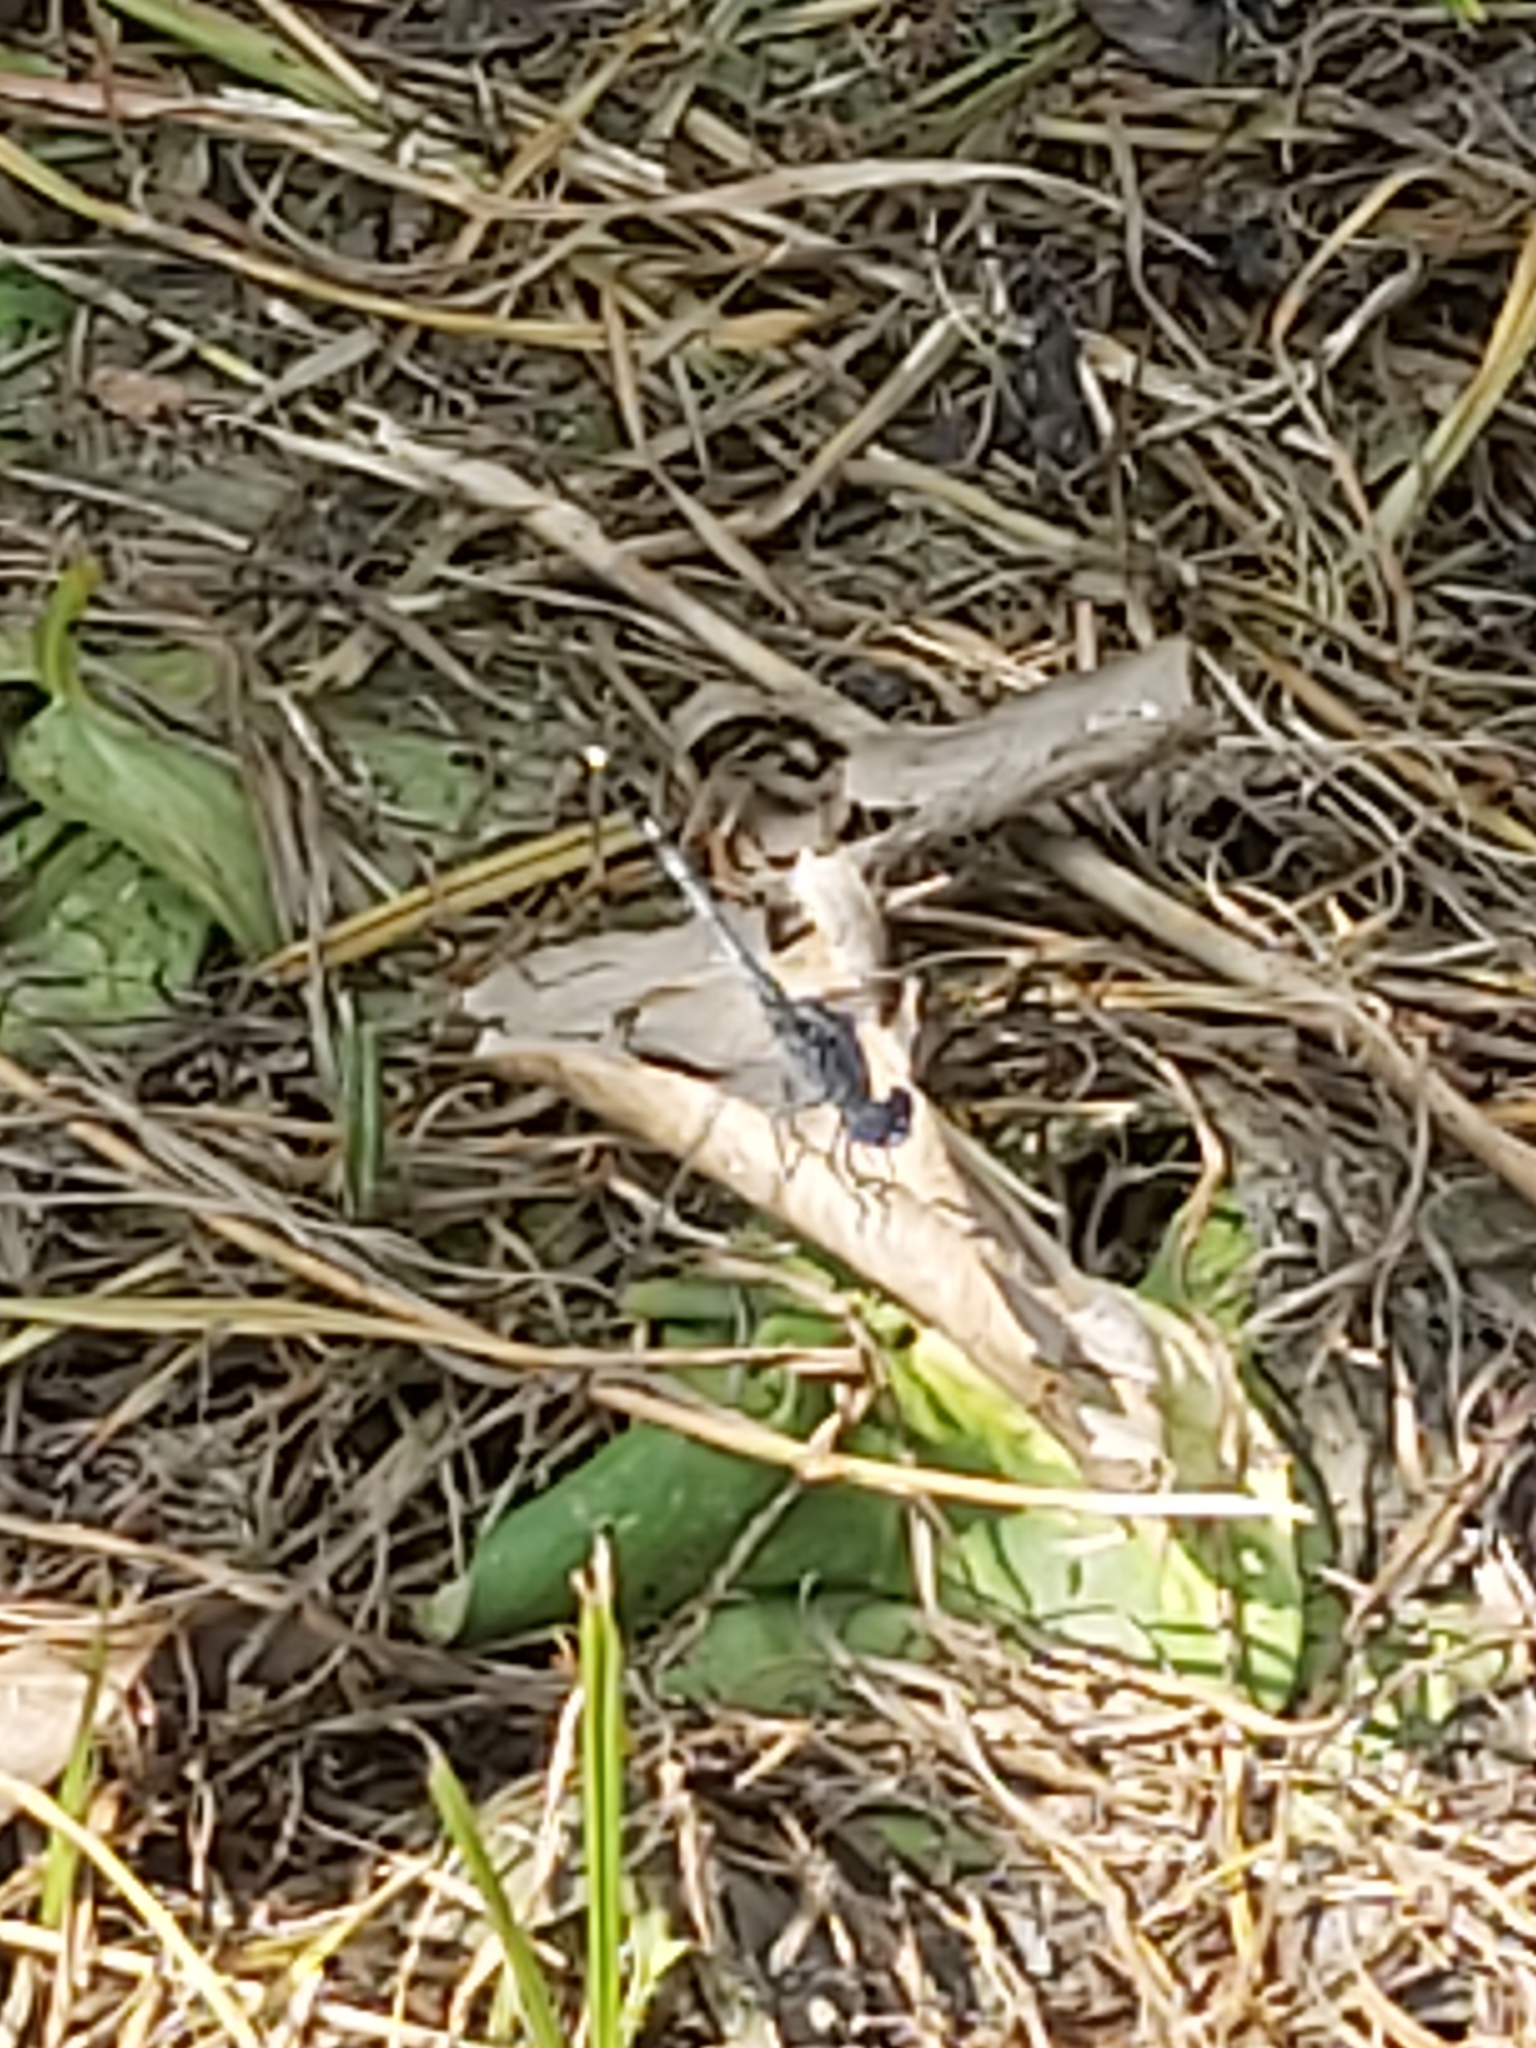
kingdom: Animalia
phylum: Arthropoda
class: Insecta
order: Odonata
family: Libellulidae
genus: Diplacodes
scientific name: Diplacodes trivialis
